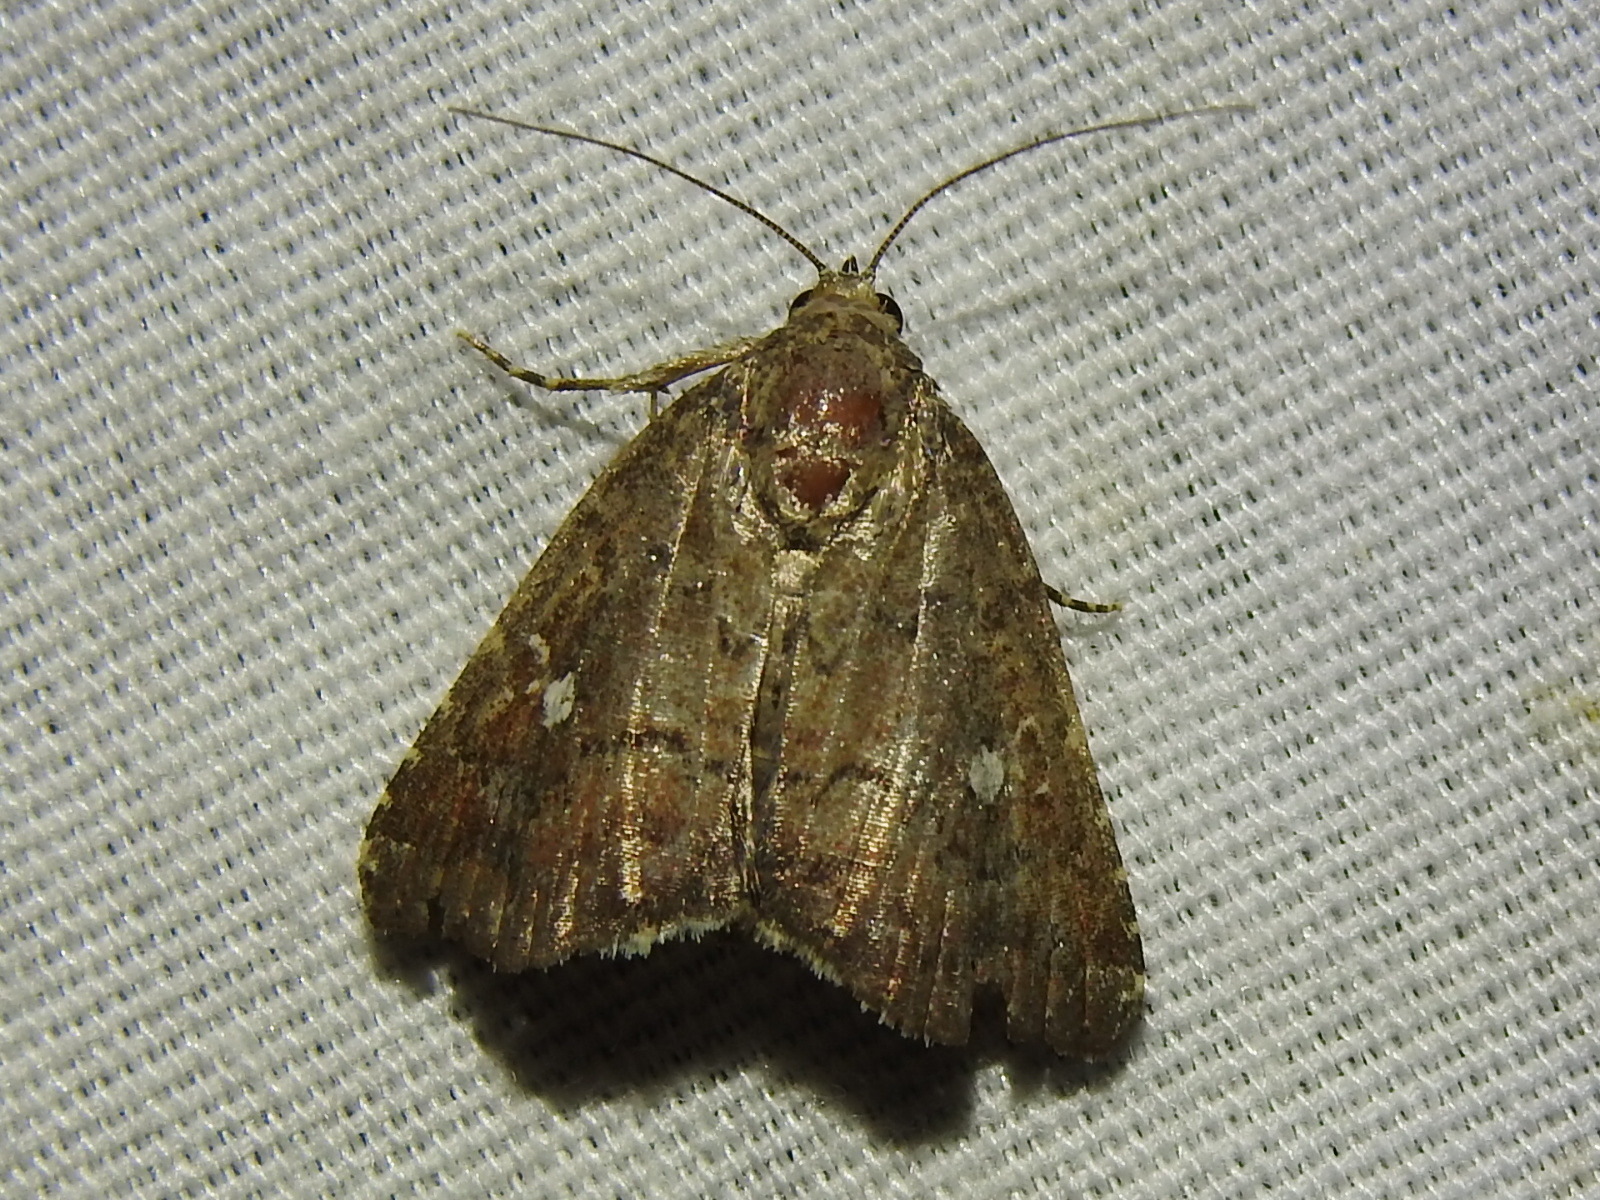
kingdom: Animalia
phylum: Arthropoda
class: Insecta
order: Lepidoptera
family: Noctuidae
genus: Amyna
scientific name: Amyna stricta
